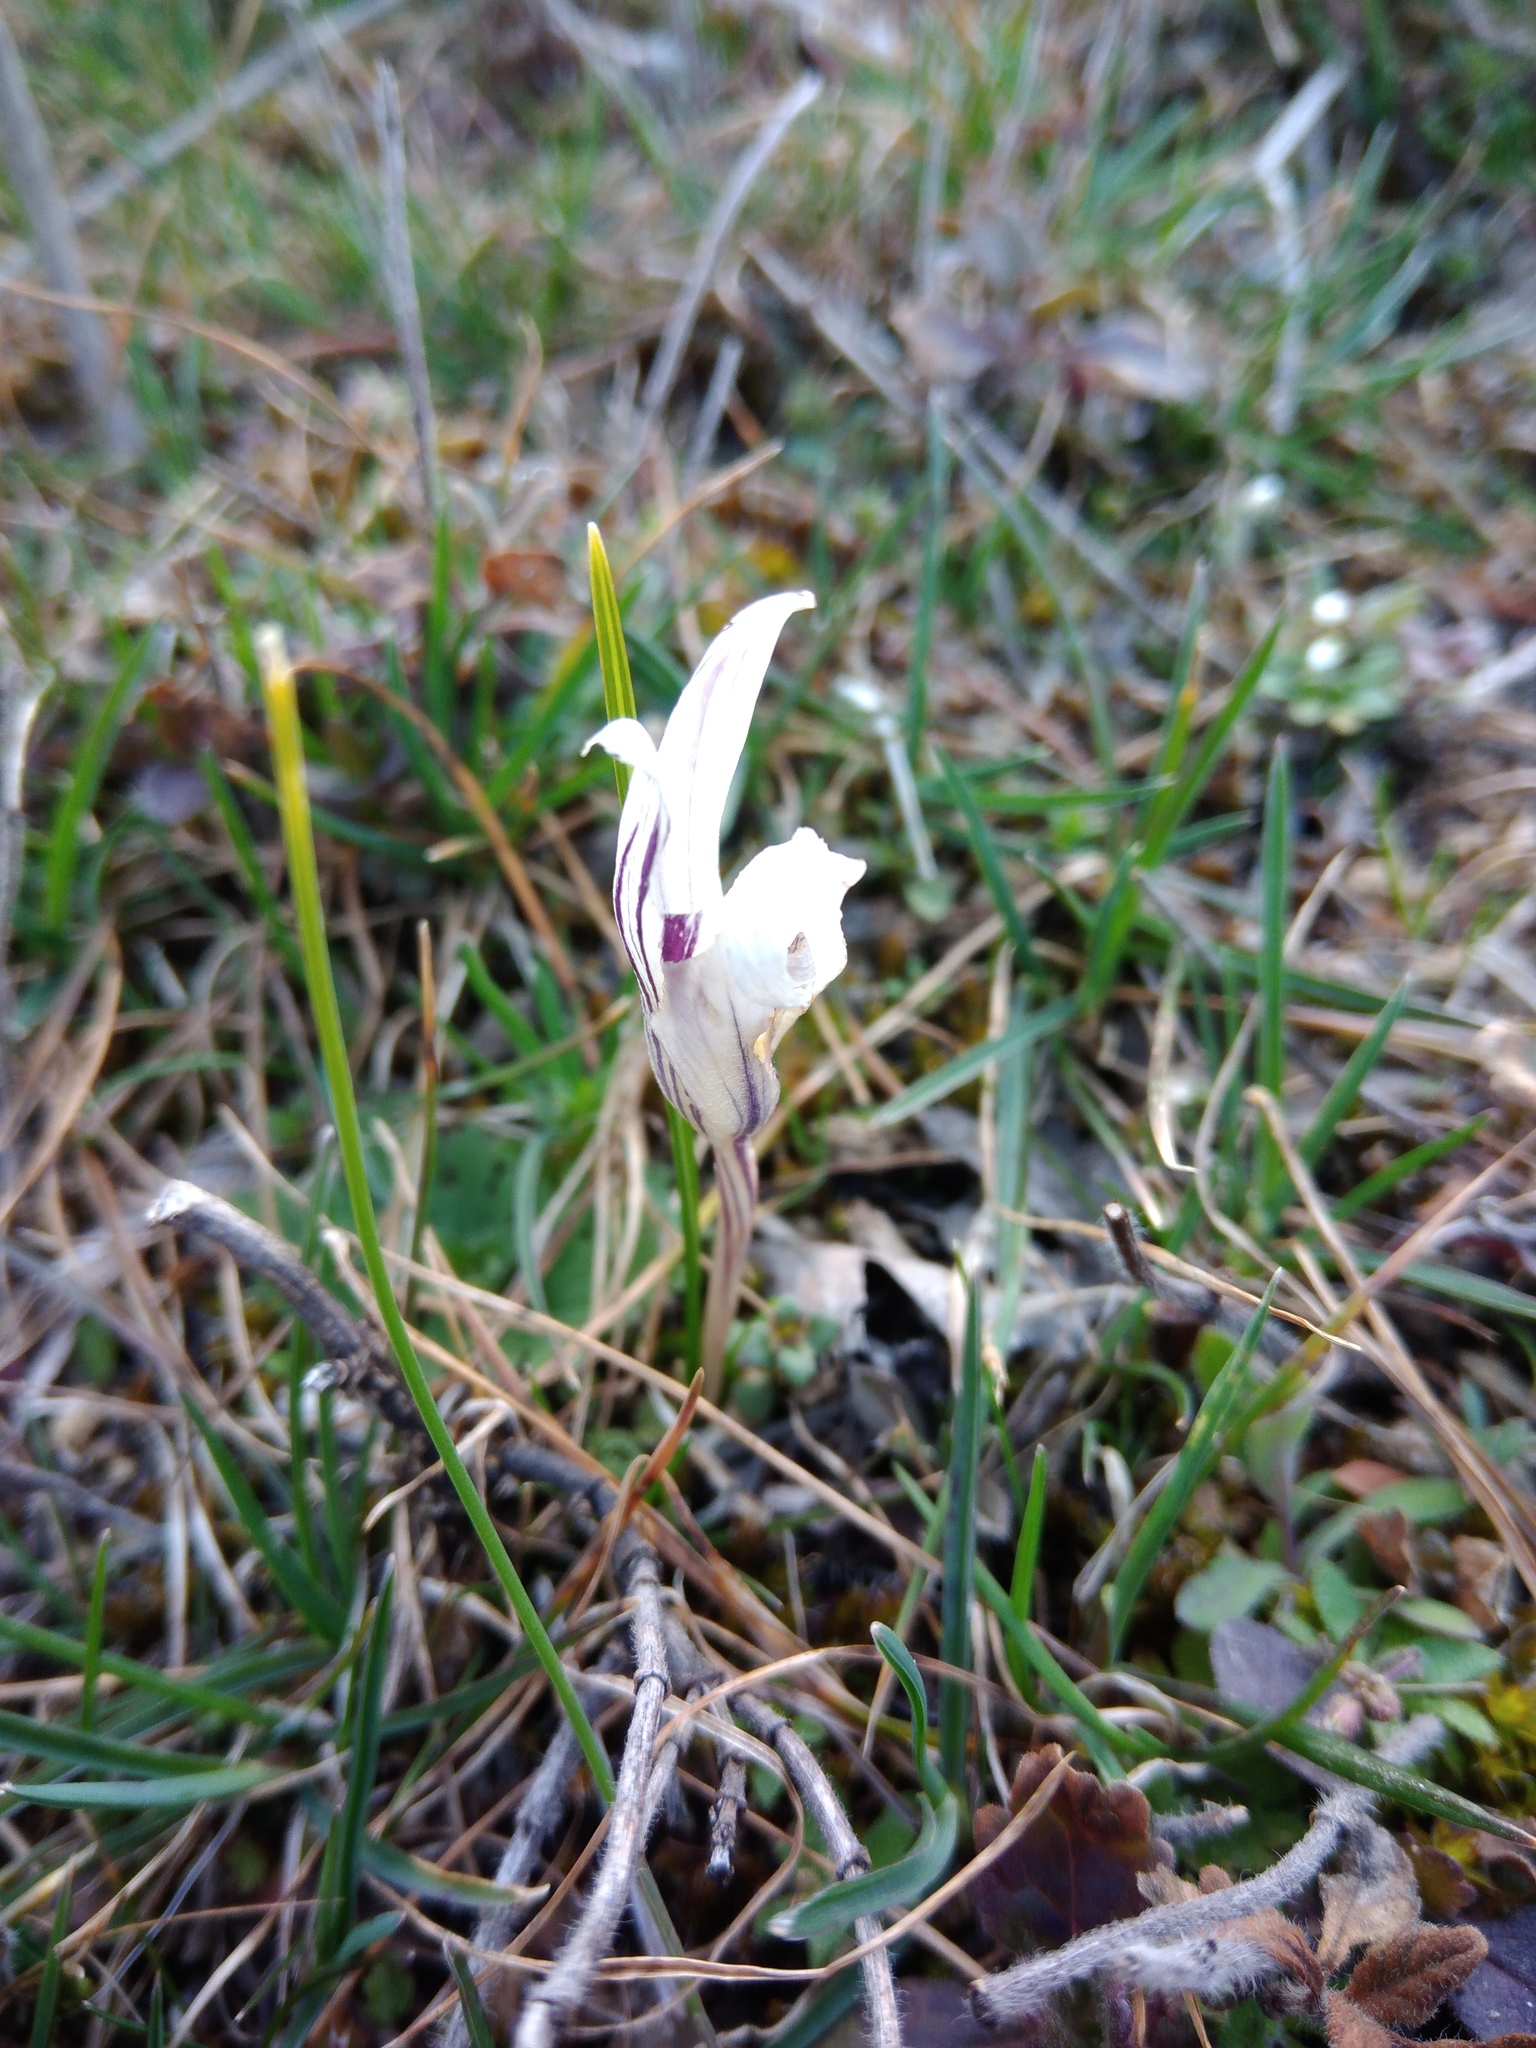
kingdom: Plantae
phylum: Tracheophyta
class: Liliopsida
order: Asparagales
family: Iridaceae
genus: Crocus
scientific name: Crocus reticulatus
